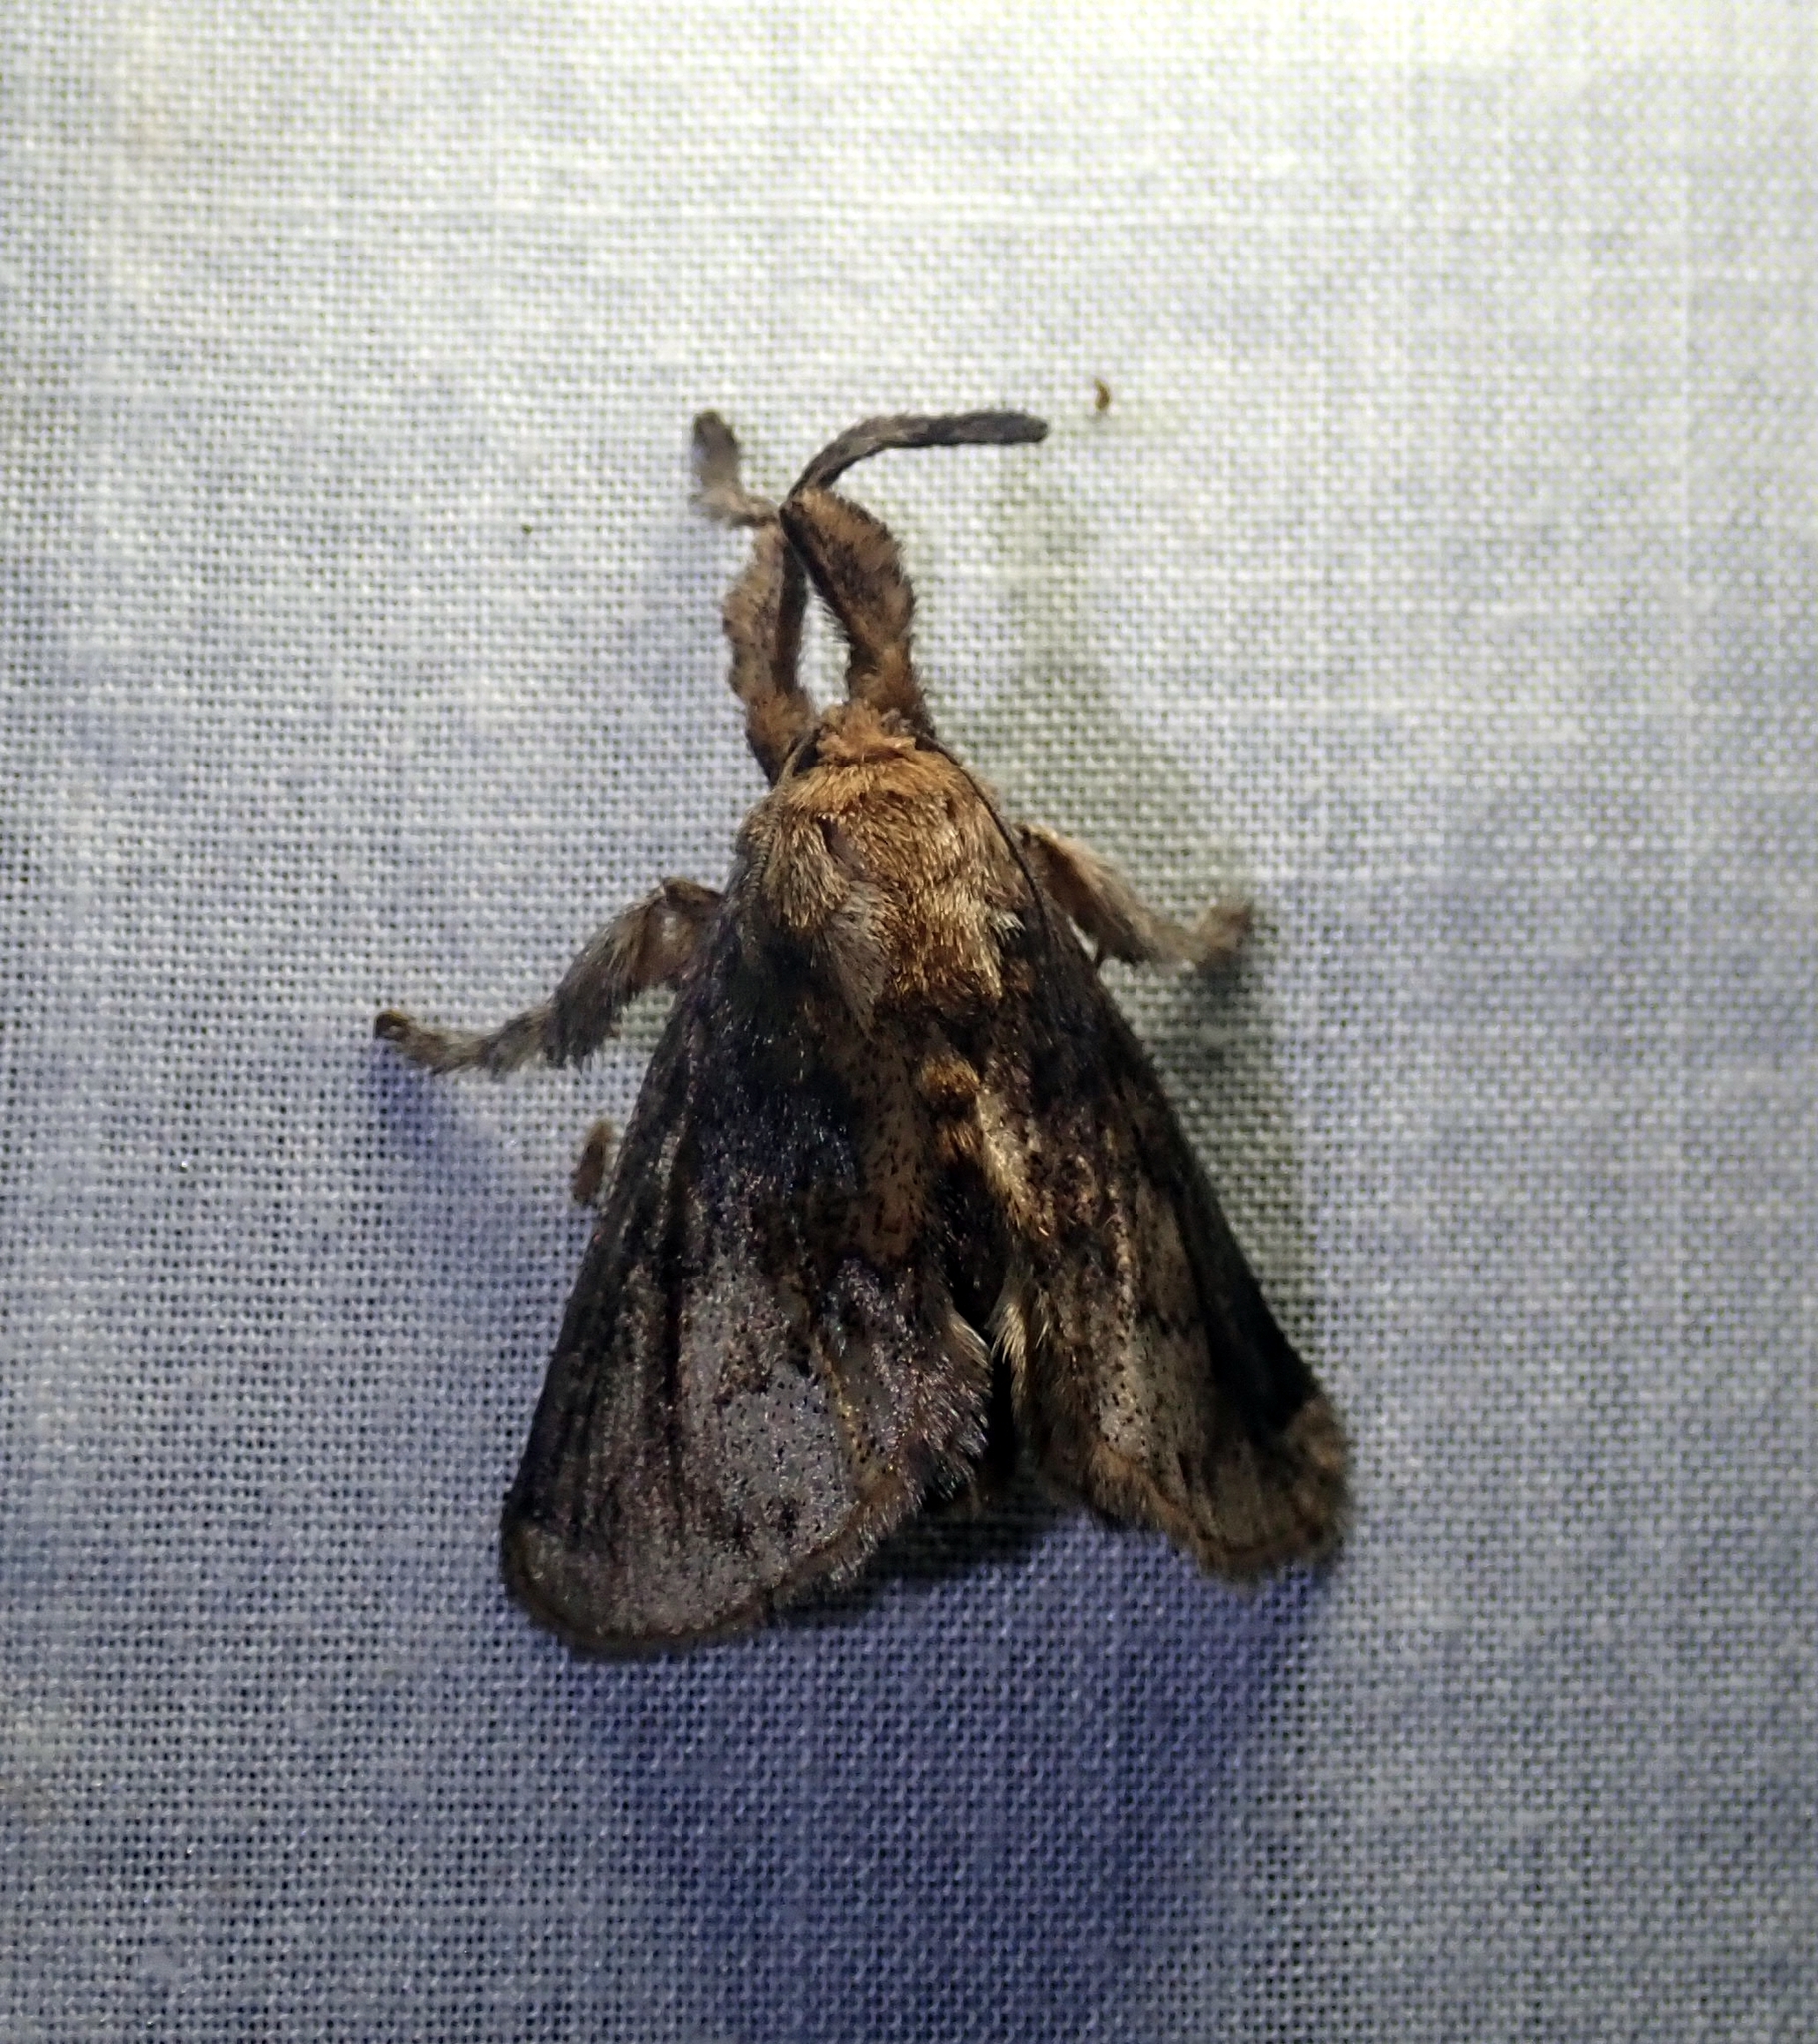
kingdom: Animalia
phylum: Arthropoda
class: Insecta
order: Lepidoptera
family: Limacodidae
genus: Perola
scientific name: Perola nitidissima
